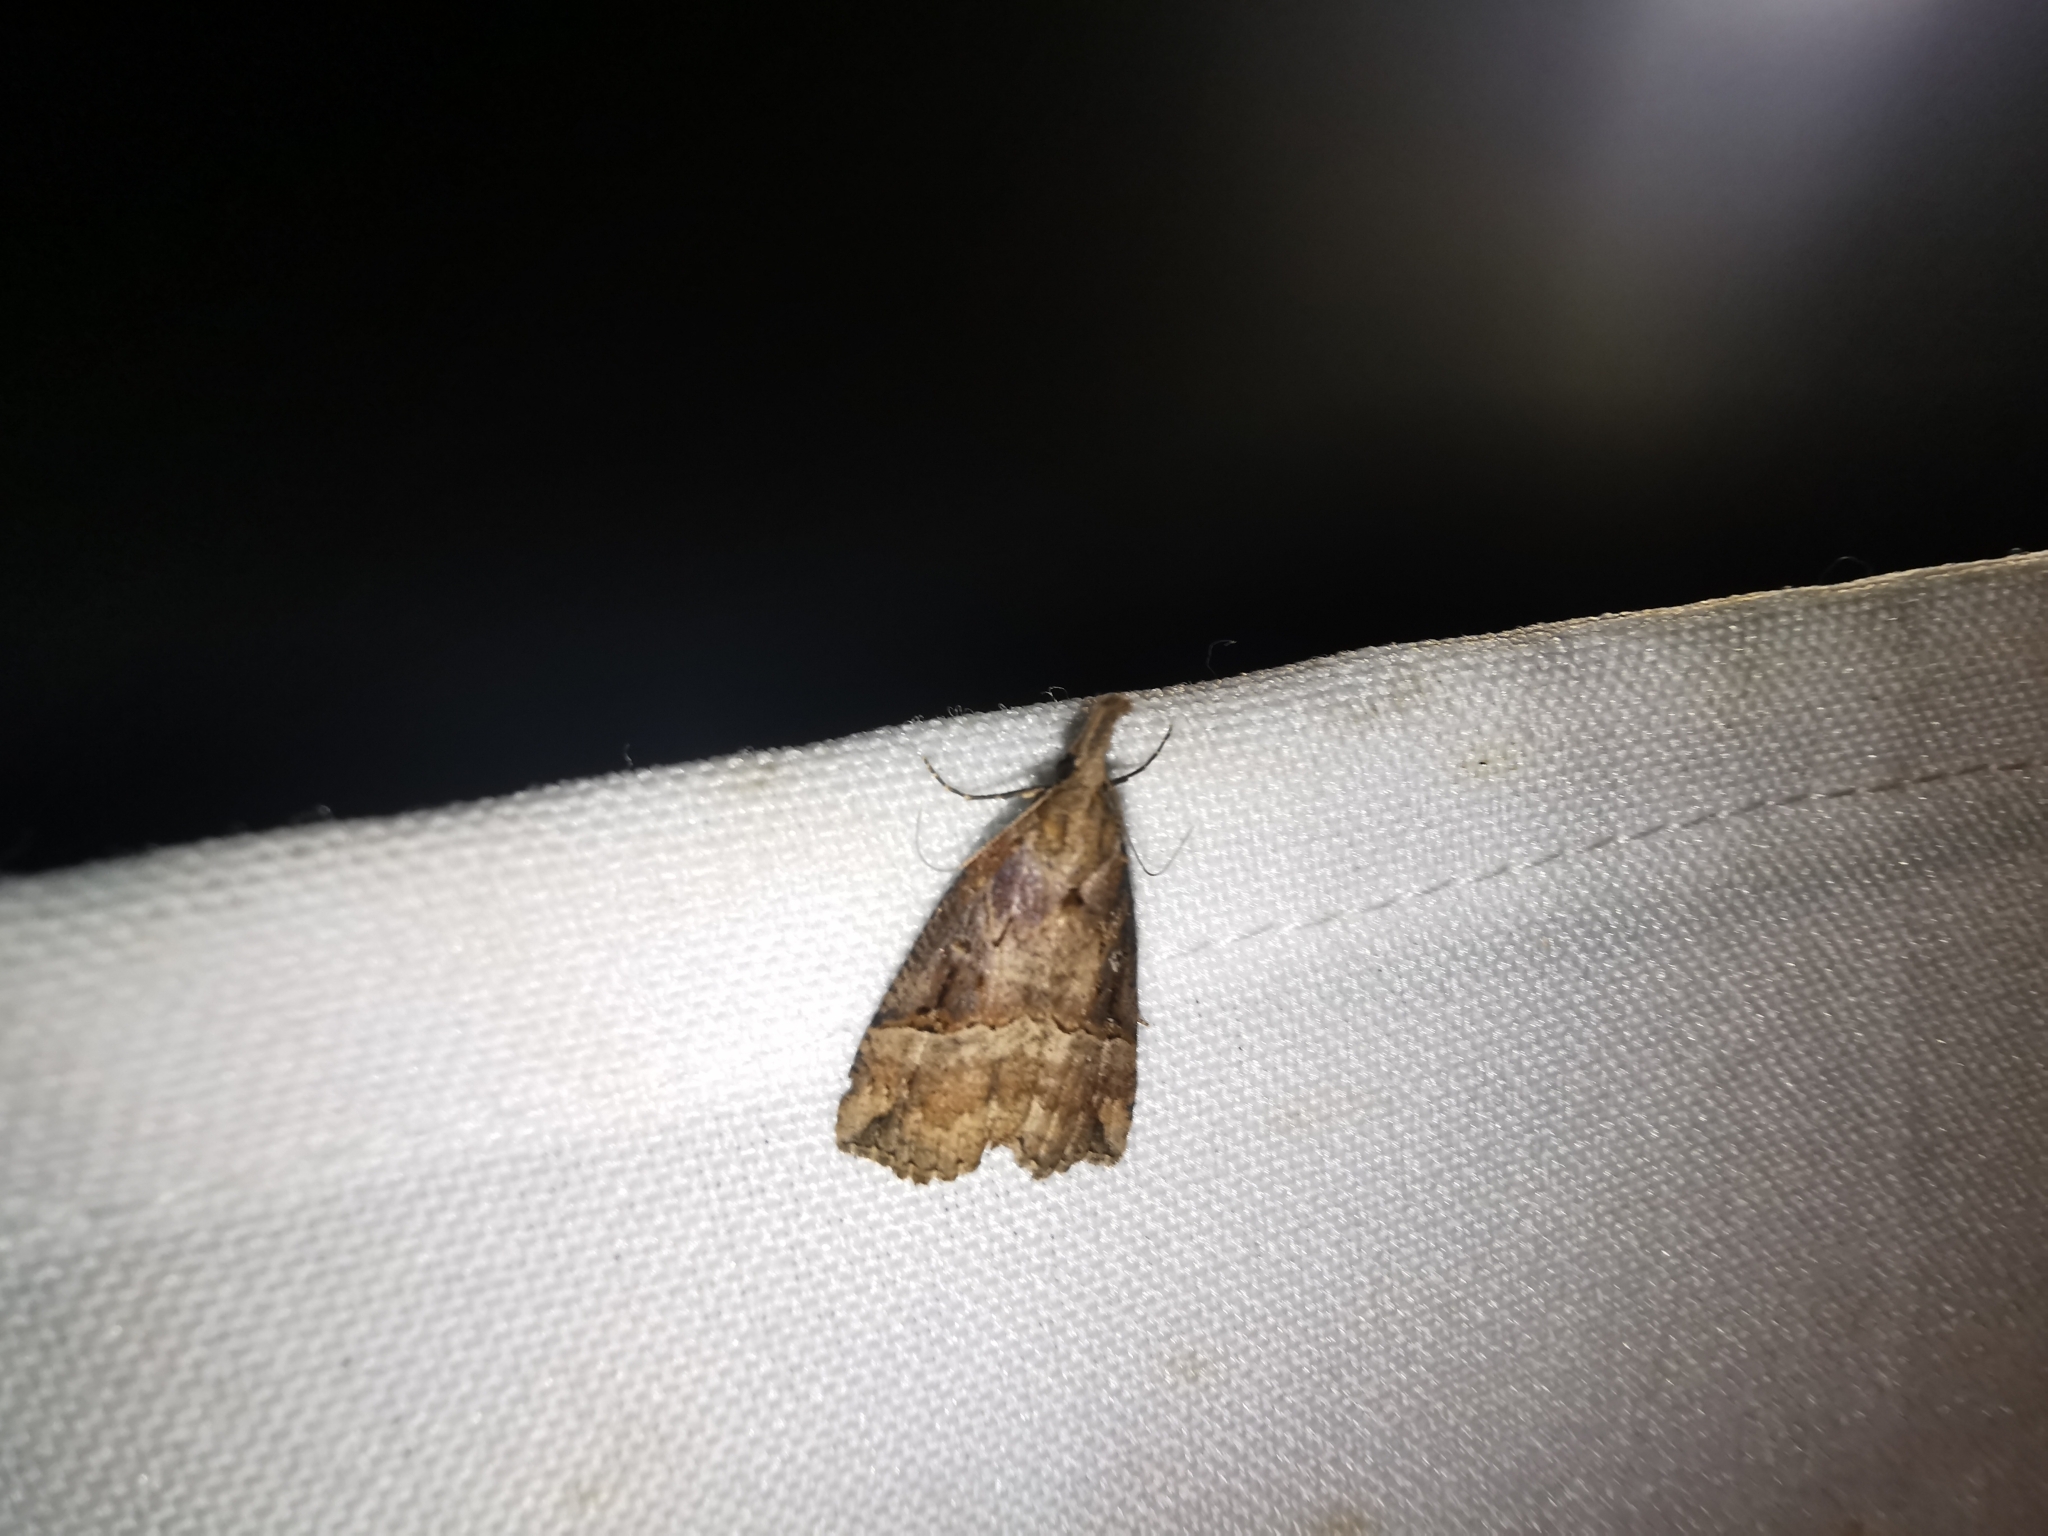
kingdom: Animalia
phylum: Arthropoda
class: Insecta
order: Lepidoptera
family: Erebidae
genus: Hypena
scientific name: Hypena rostralis
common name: Buttoned snout
